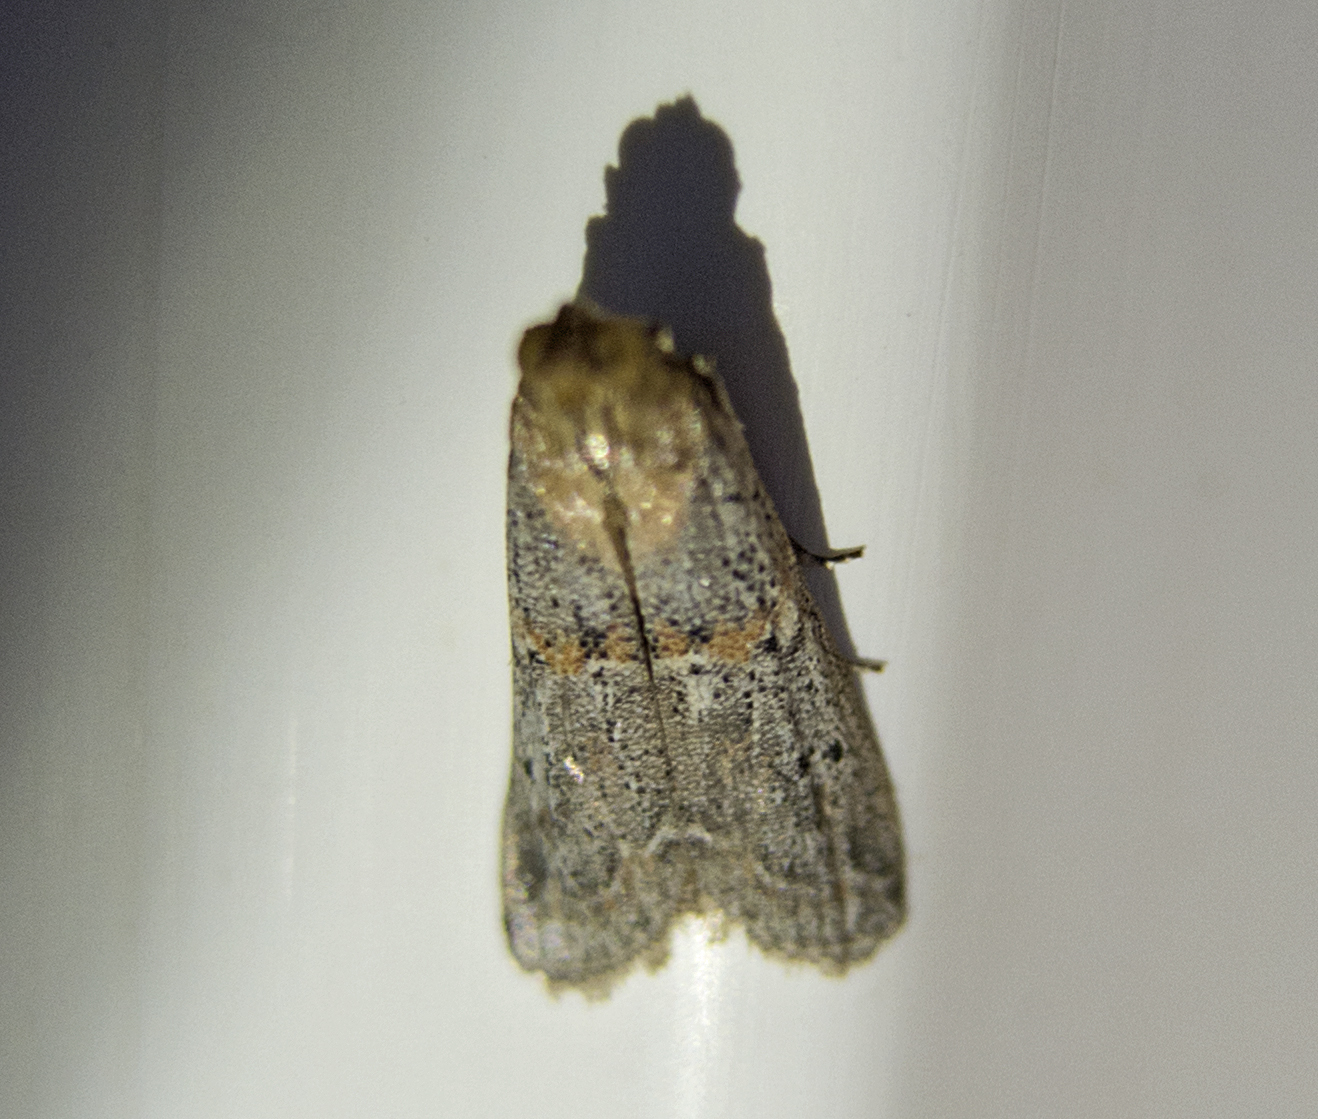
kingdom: Animalia
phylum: Arthropoda
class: Insecta
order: Lepidoptera
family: Pyralidae
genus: Gymnancyla
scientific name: Gymnancyla hornigii
